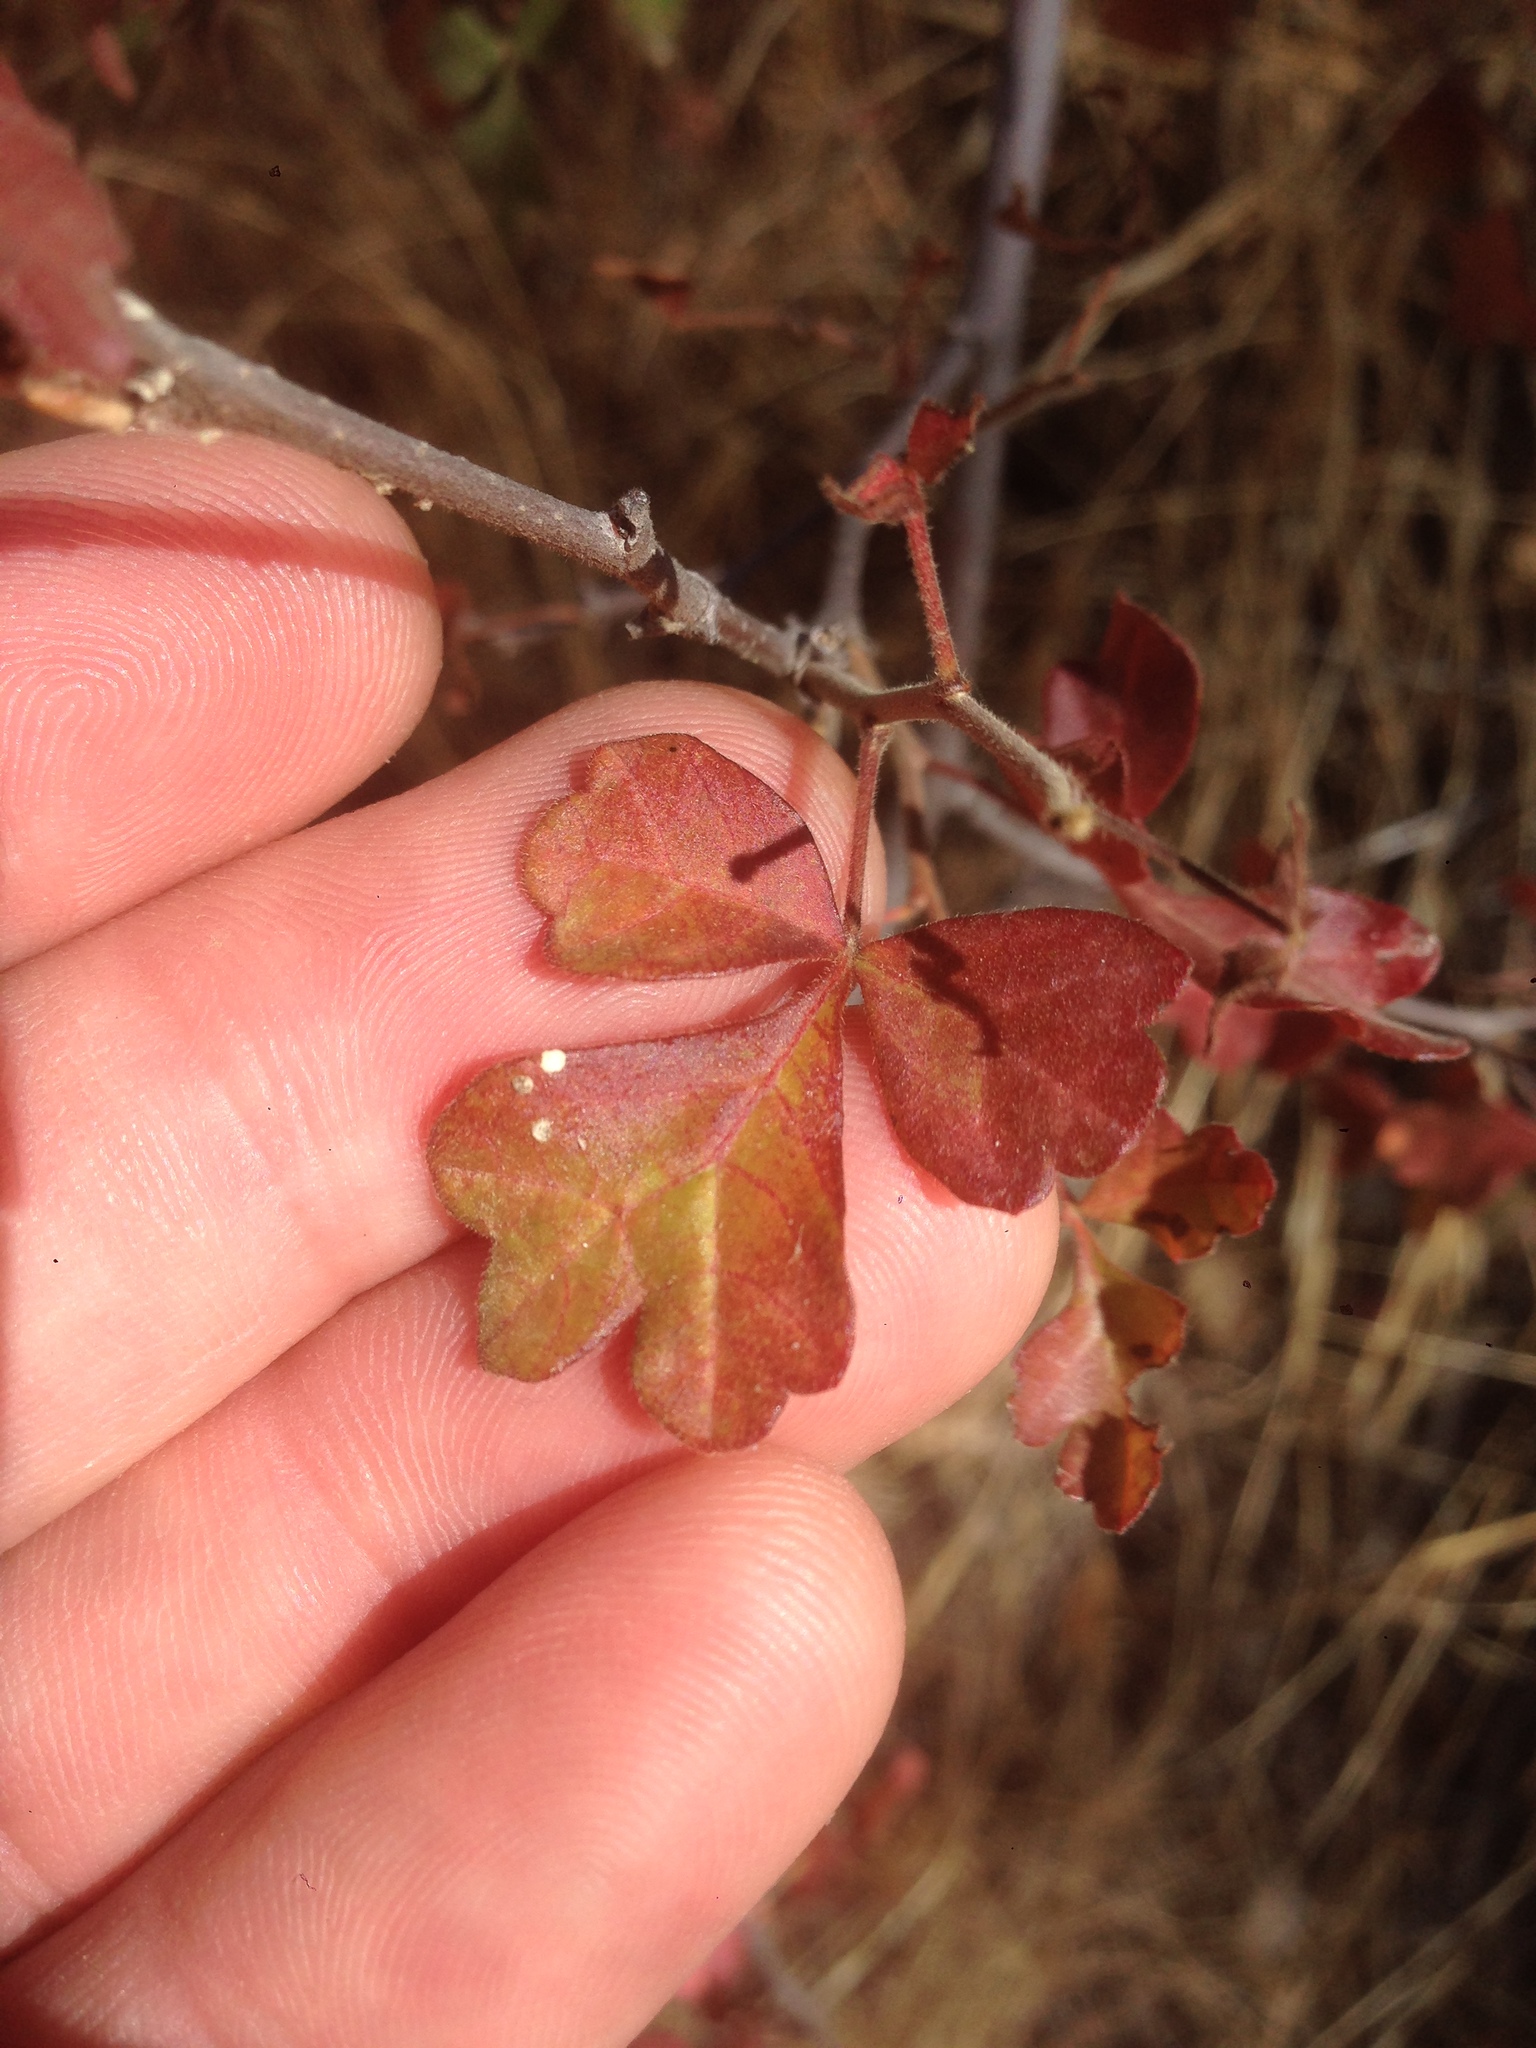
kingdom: Plantae
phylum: Tracheophyta
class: Magnoliopsida
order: Sapindales
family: Anacardiaceae
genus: Rhus
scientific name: Rhus aromatica
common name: Aromatic sumac
